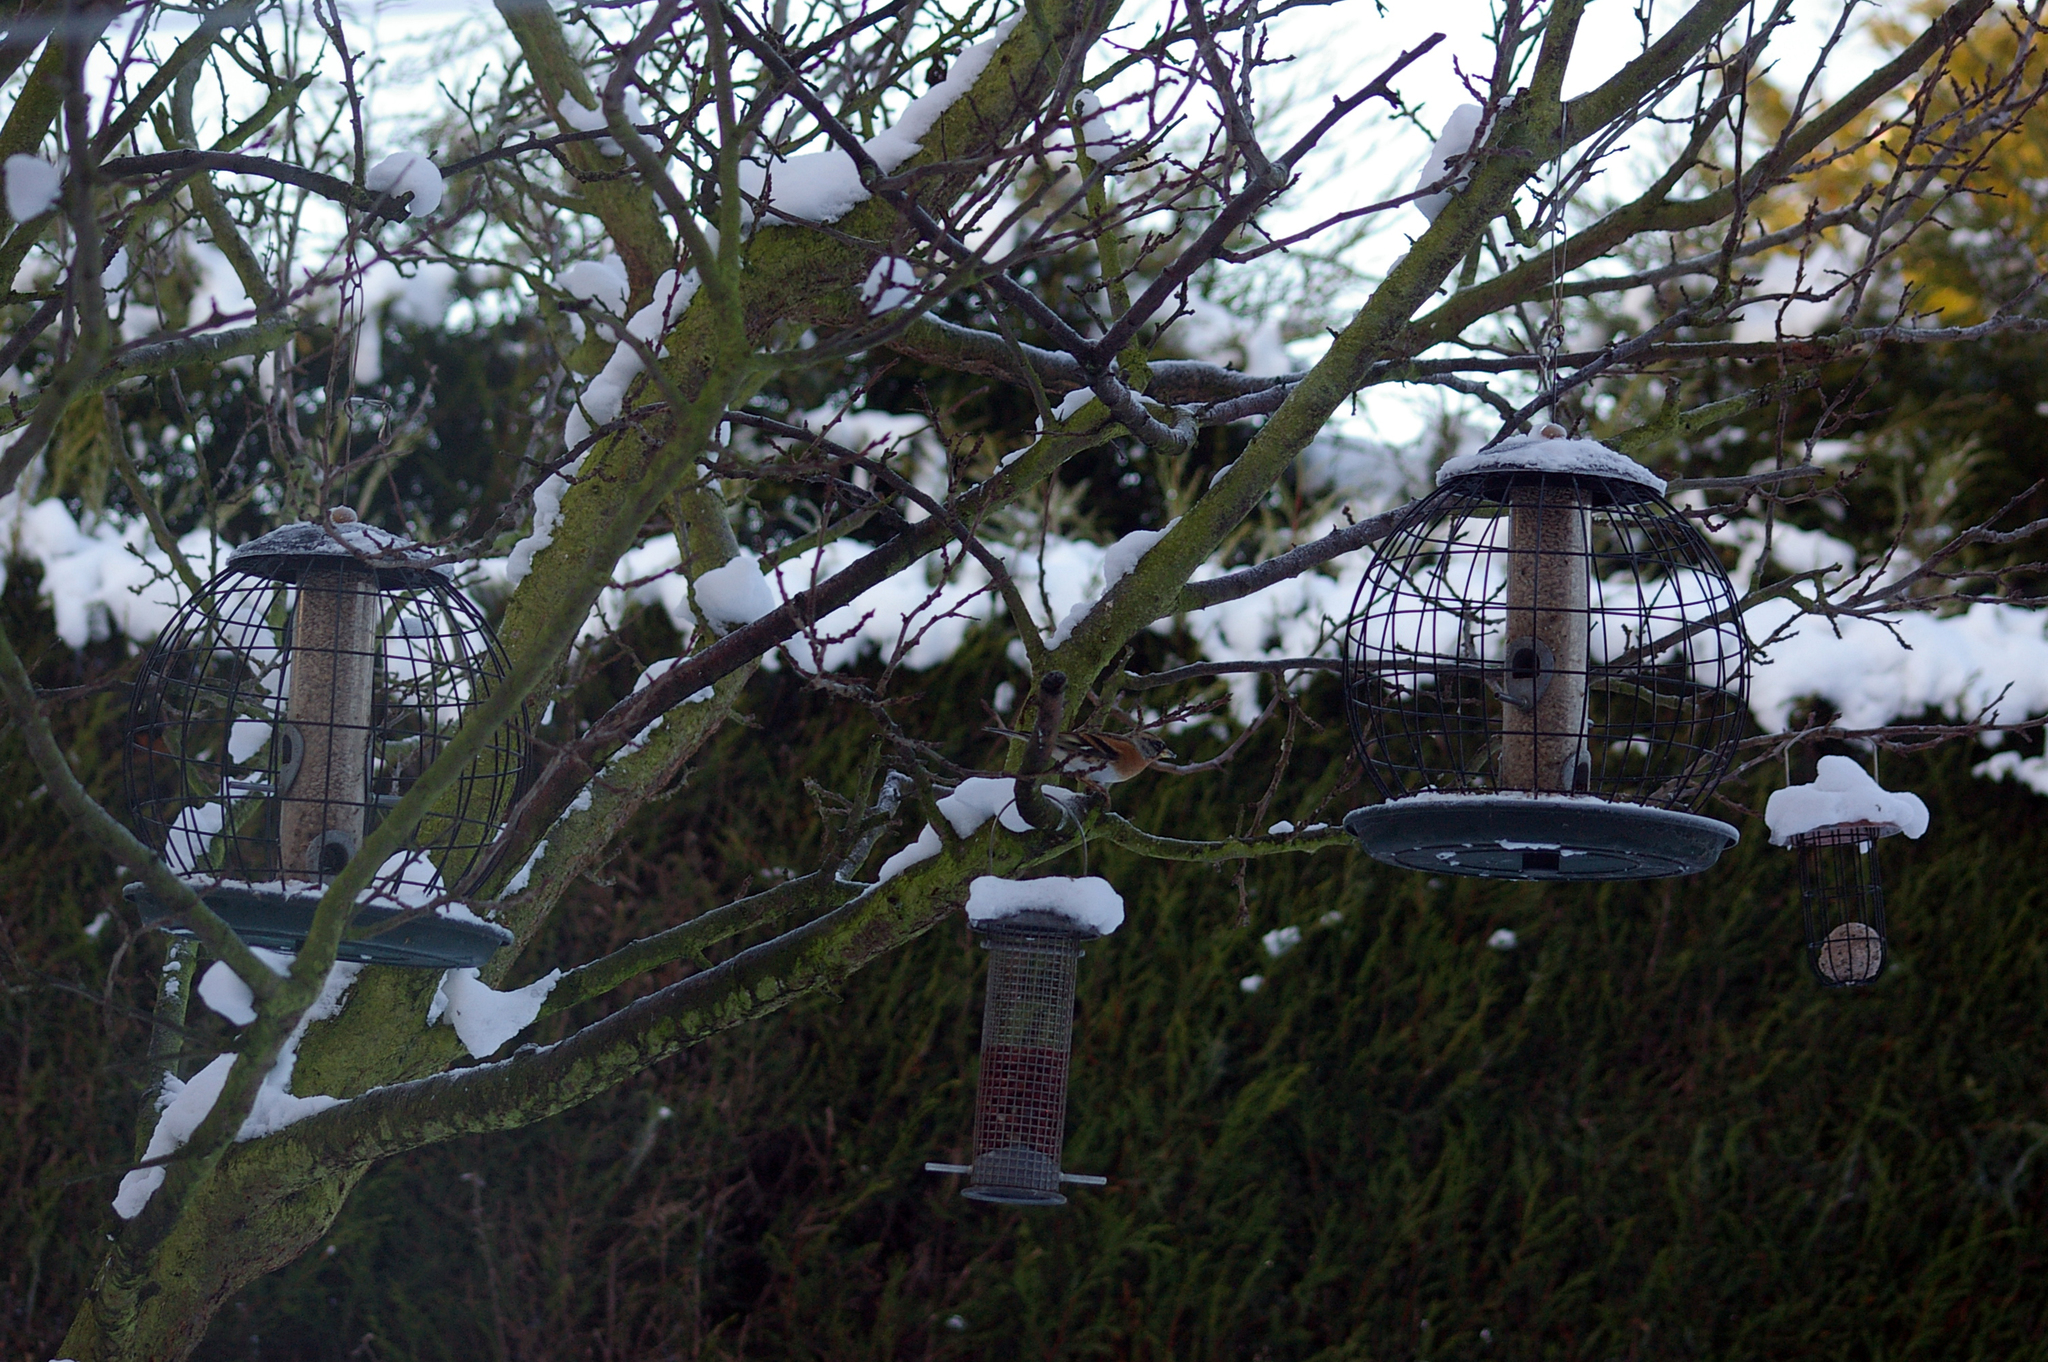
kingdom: Animalia
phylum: Chordata
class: Aves
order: Passeriformes
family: Fringillidae
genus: Fringilla
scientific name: Fringilla montifringilla
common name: Brambling
